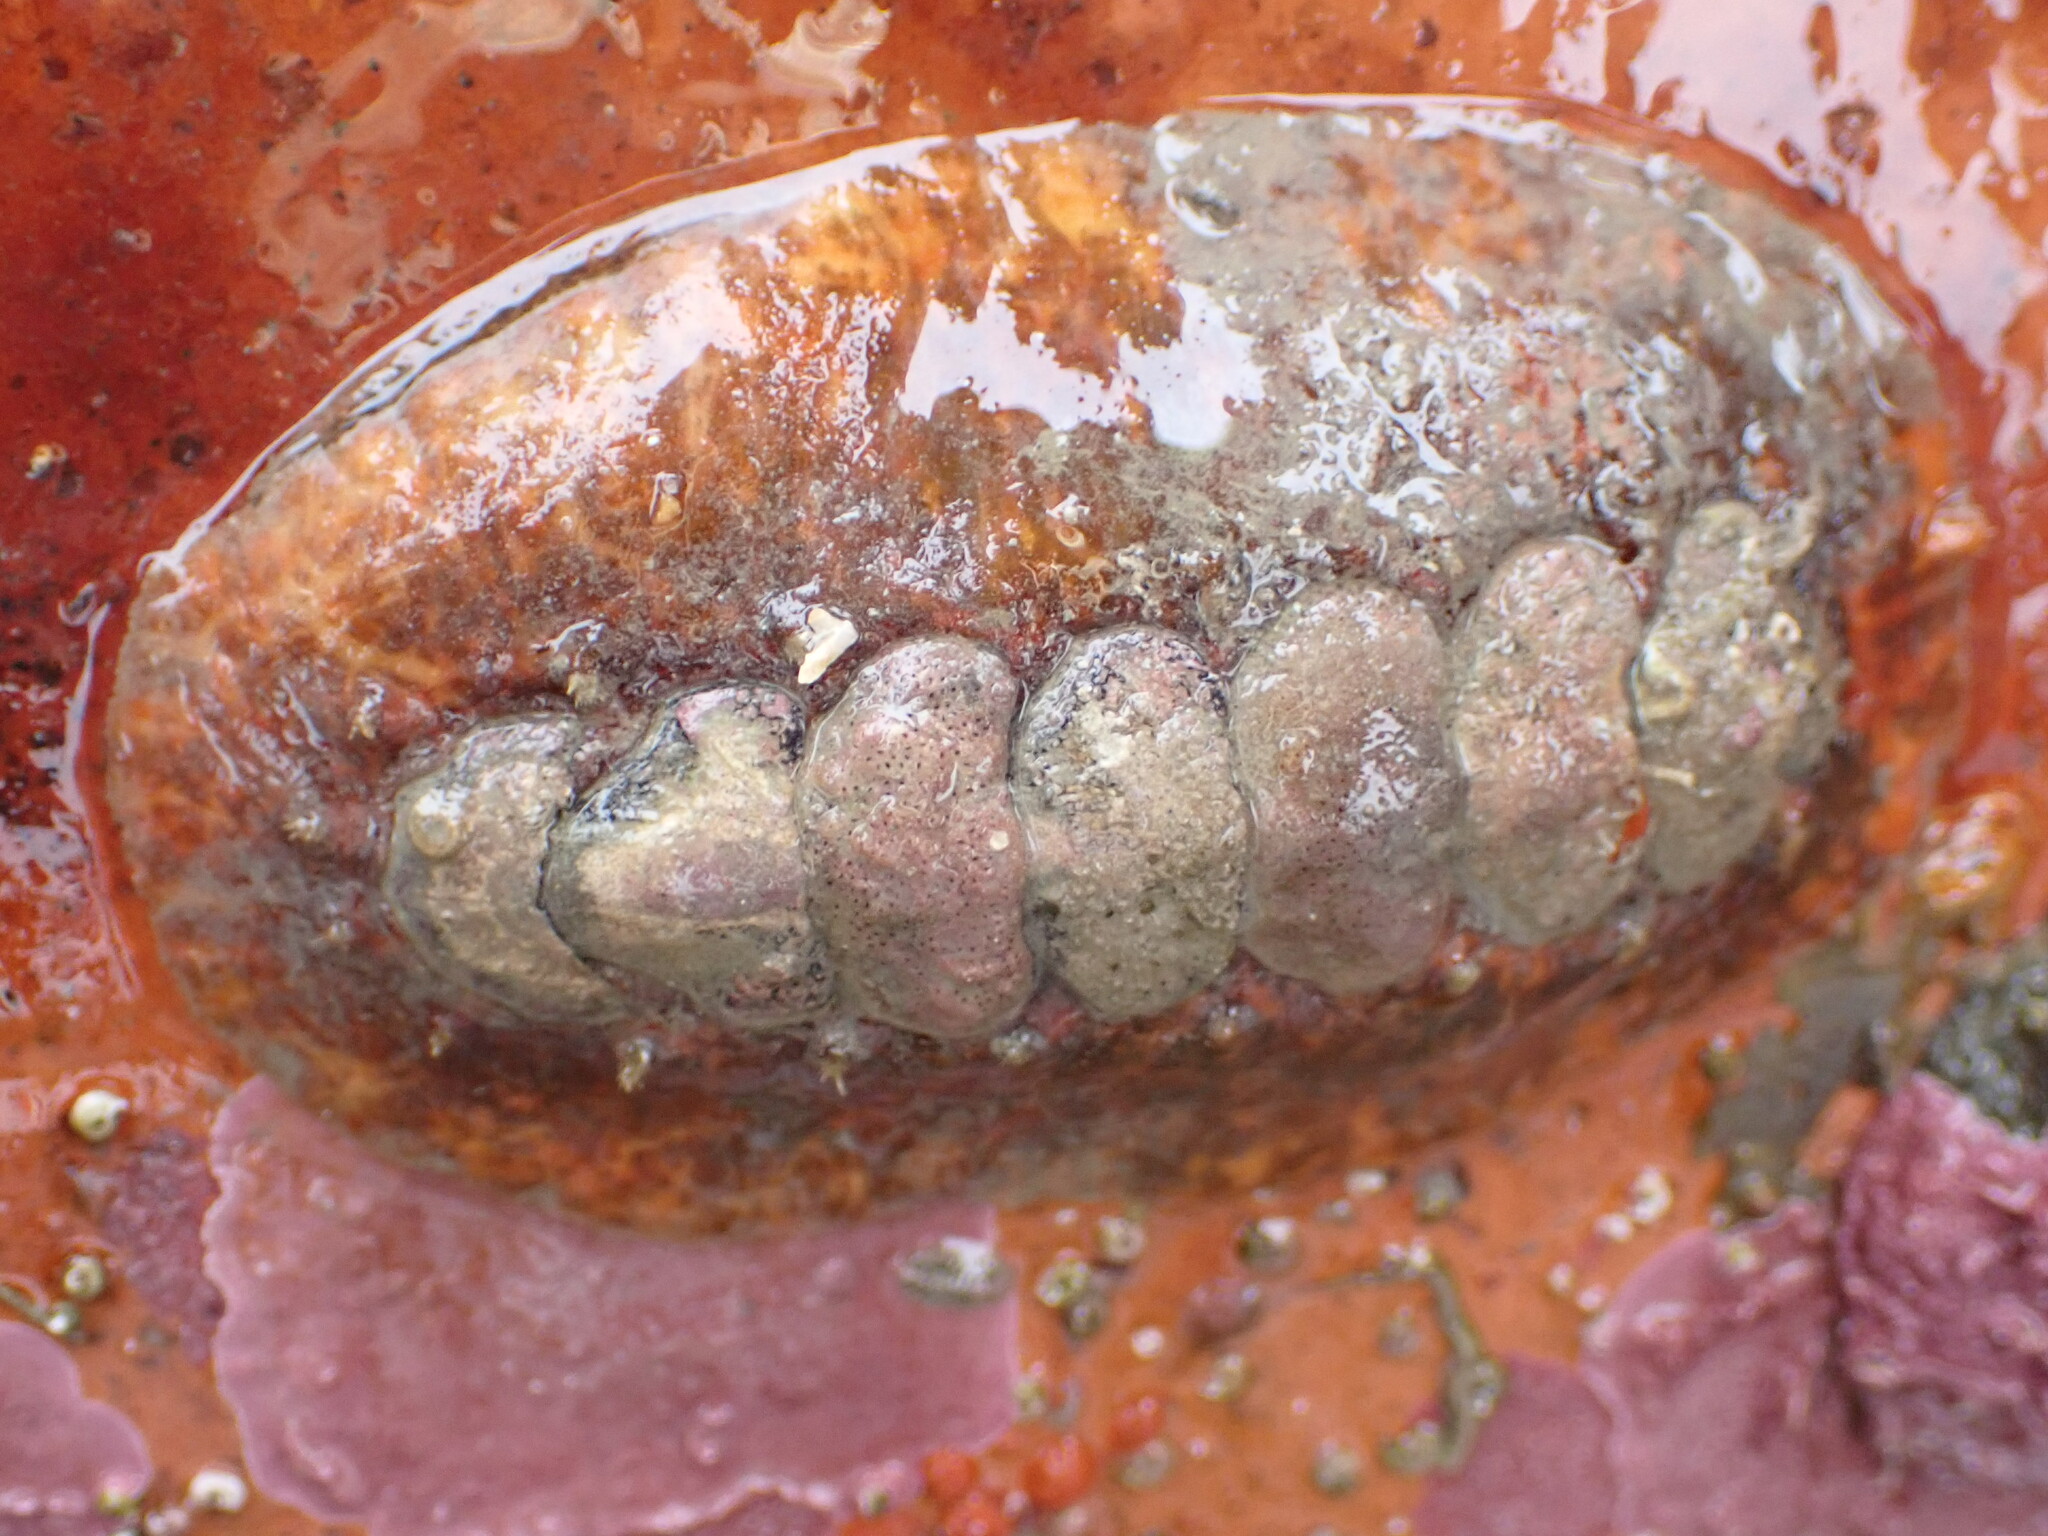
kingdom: Animalia
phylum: Mollusca
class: Polyplacophora
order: Chitonida
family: Acanthochitonidae
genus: Notoplax
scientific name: Notoplax violacea
